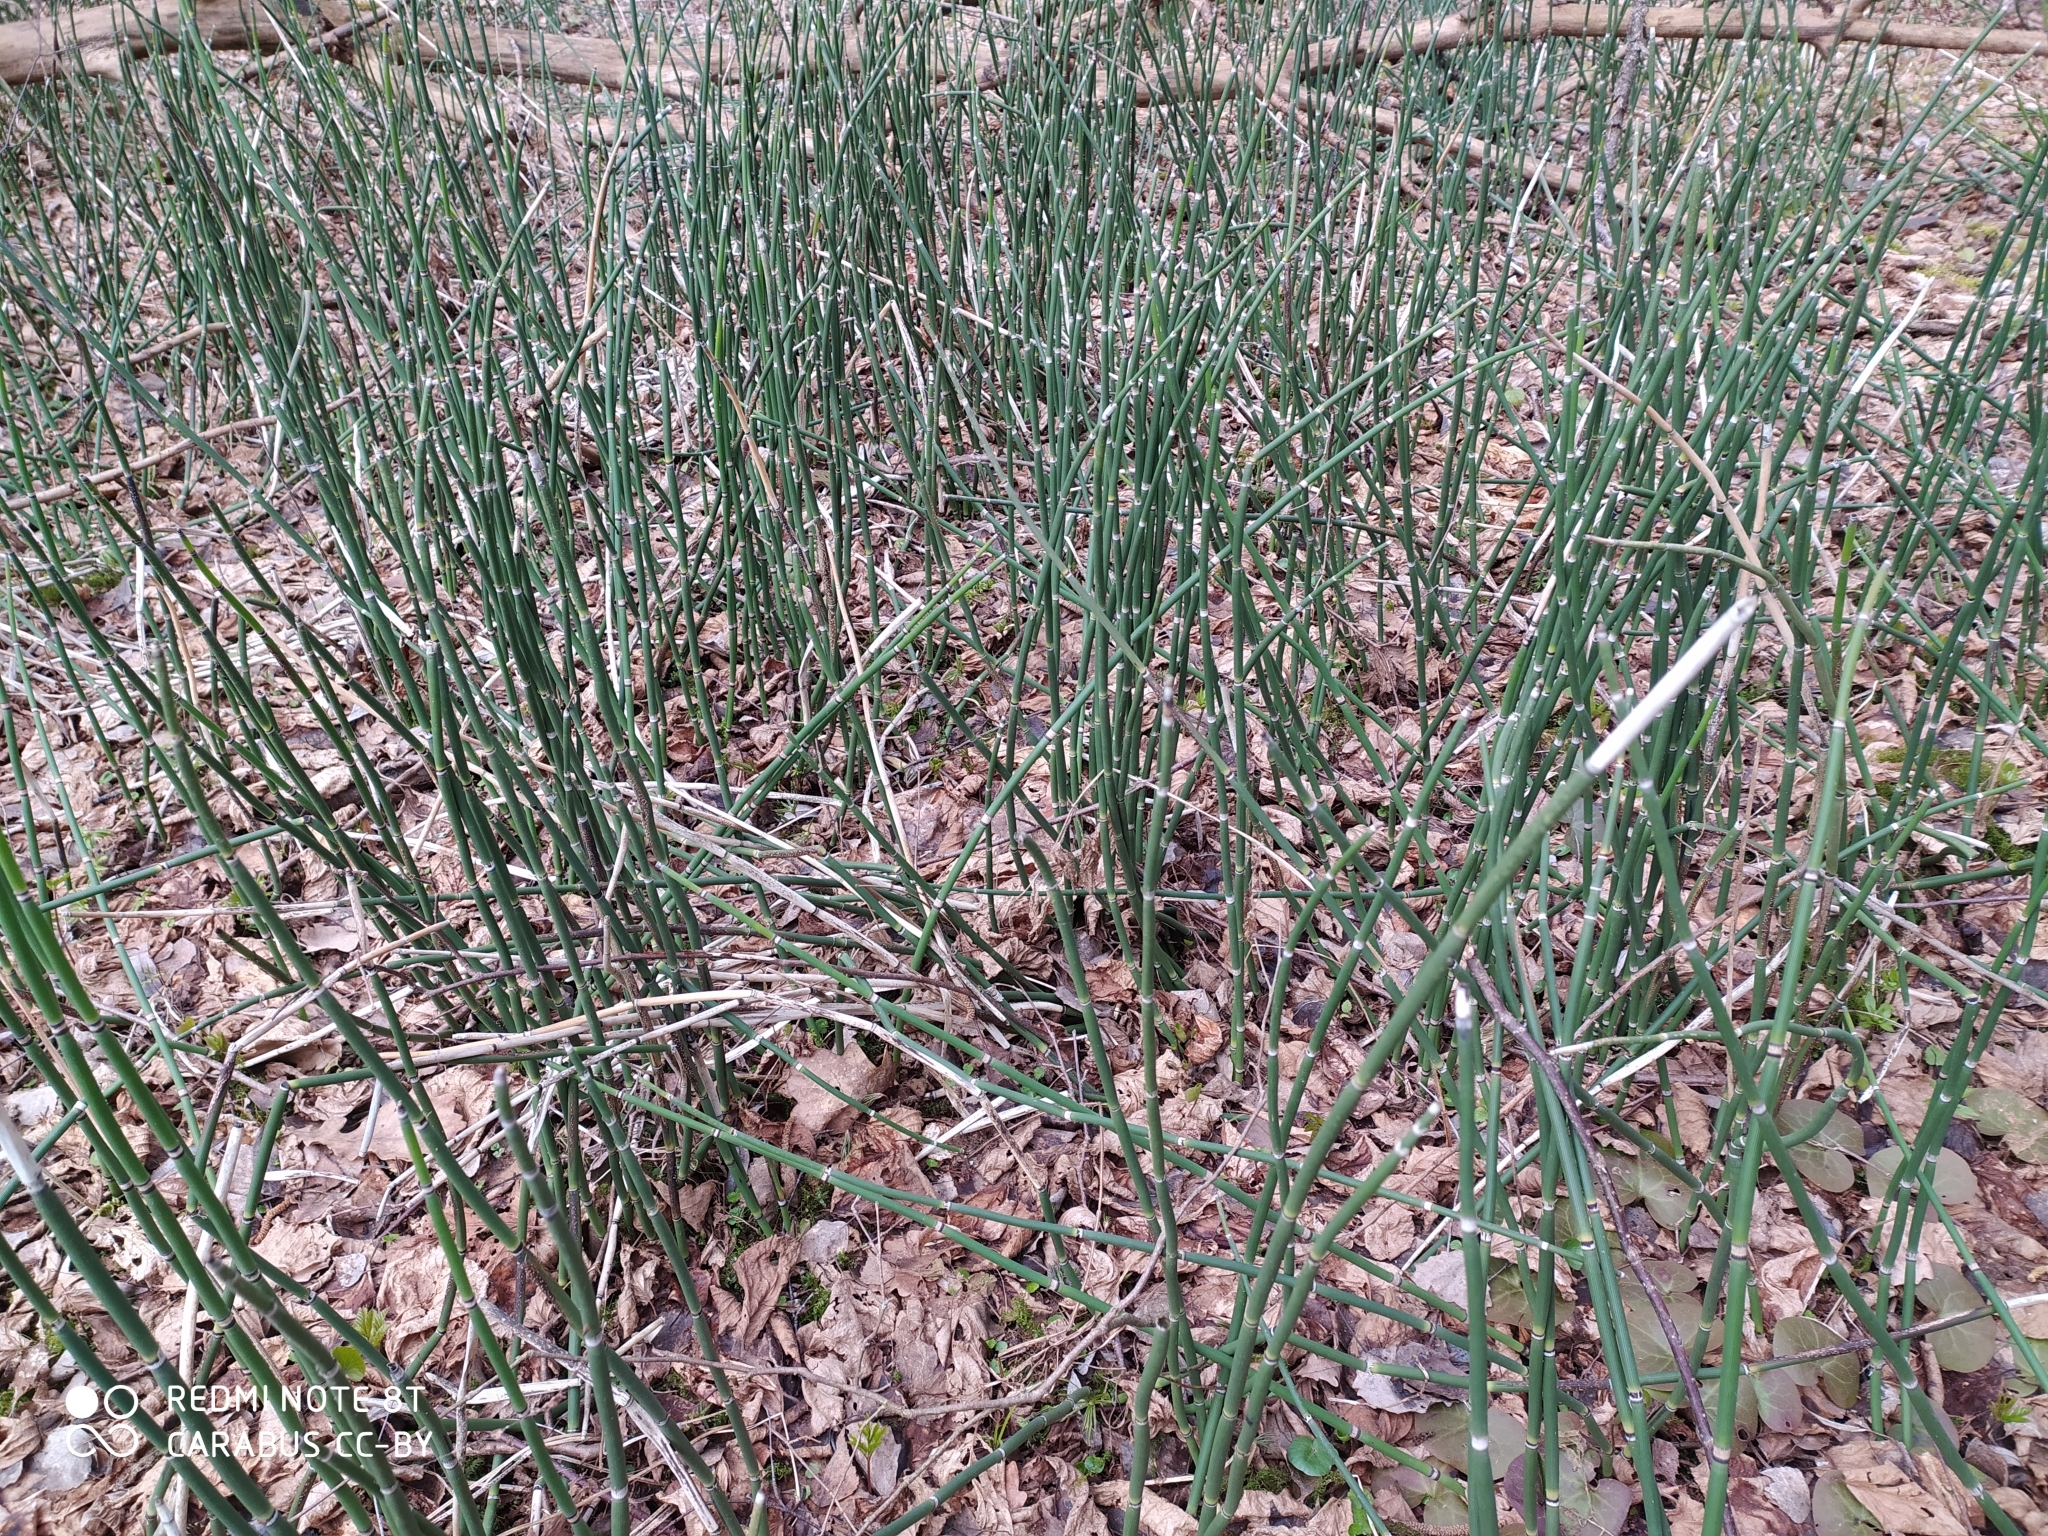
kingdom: Plantae
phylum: Tracheophyta
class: Polypodiopsida
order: Equisetales
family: Equisetaceae
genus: Equisetum
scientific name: Equisetum hyemale
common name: Rough horsetail
